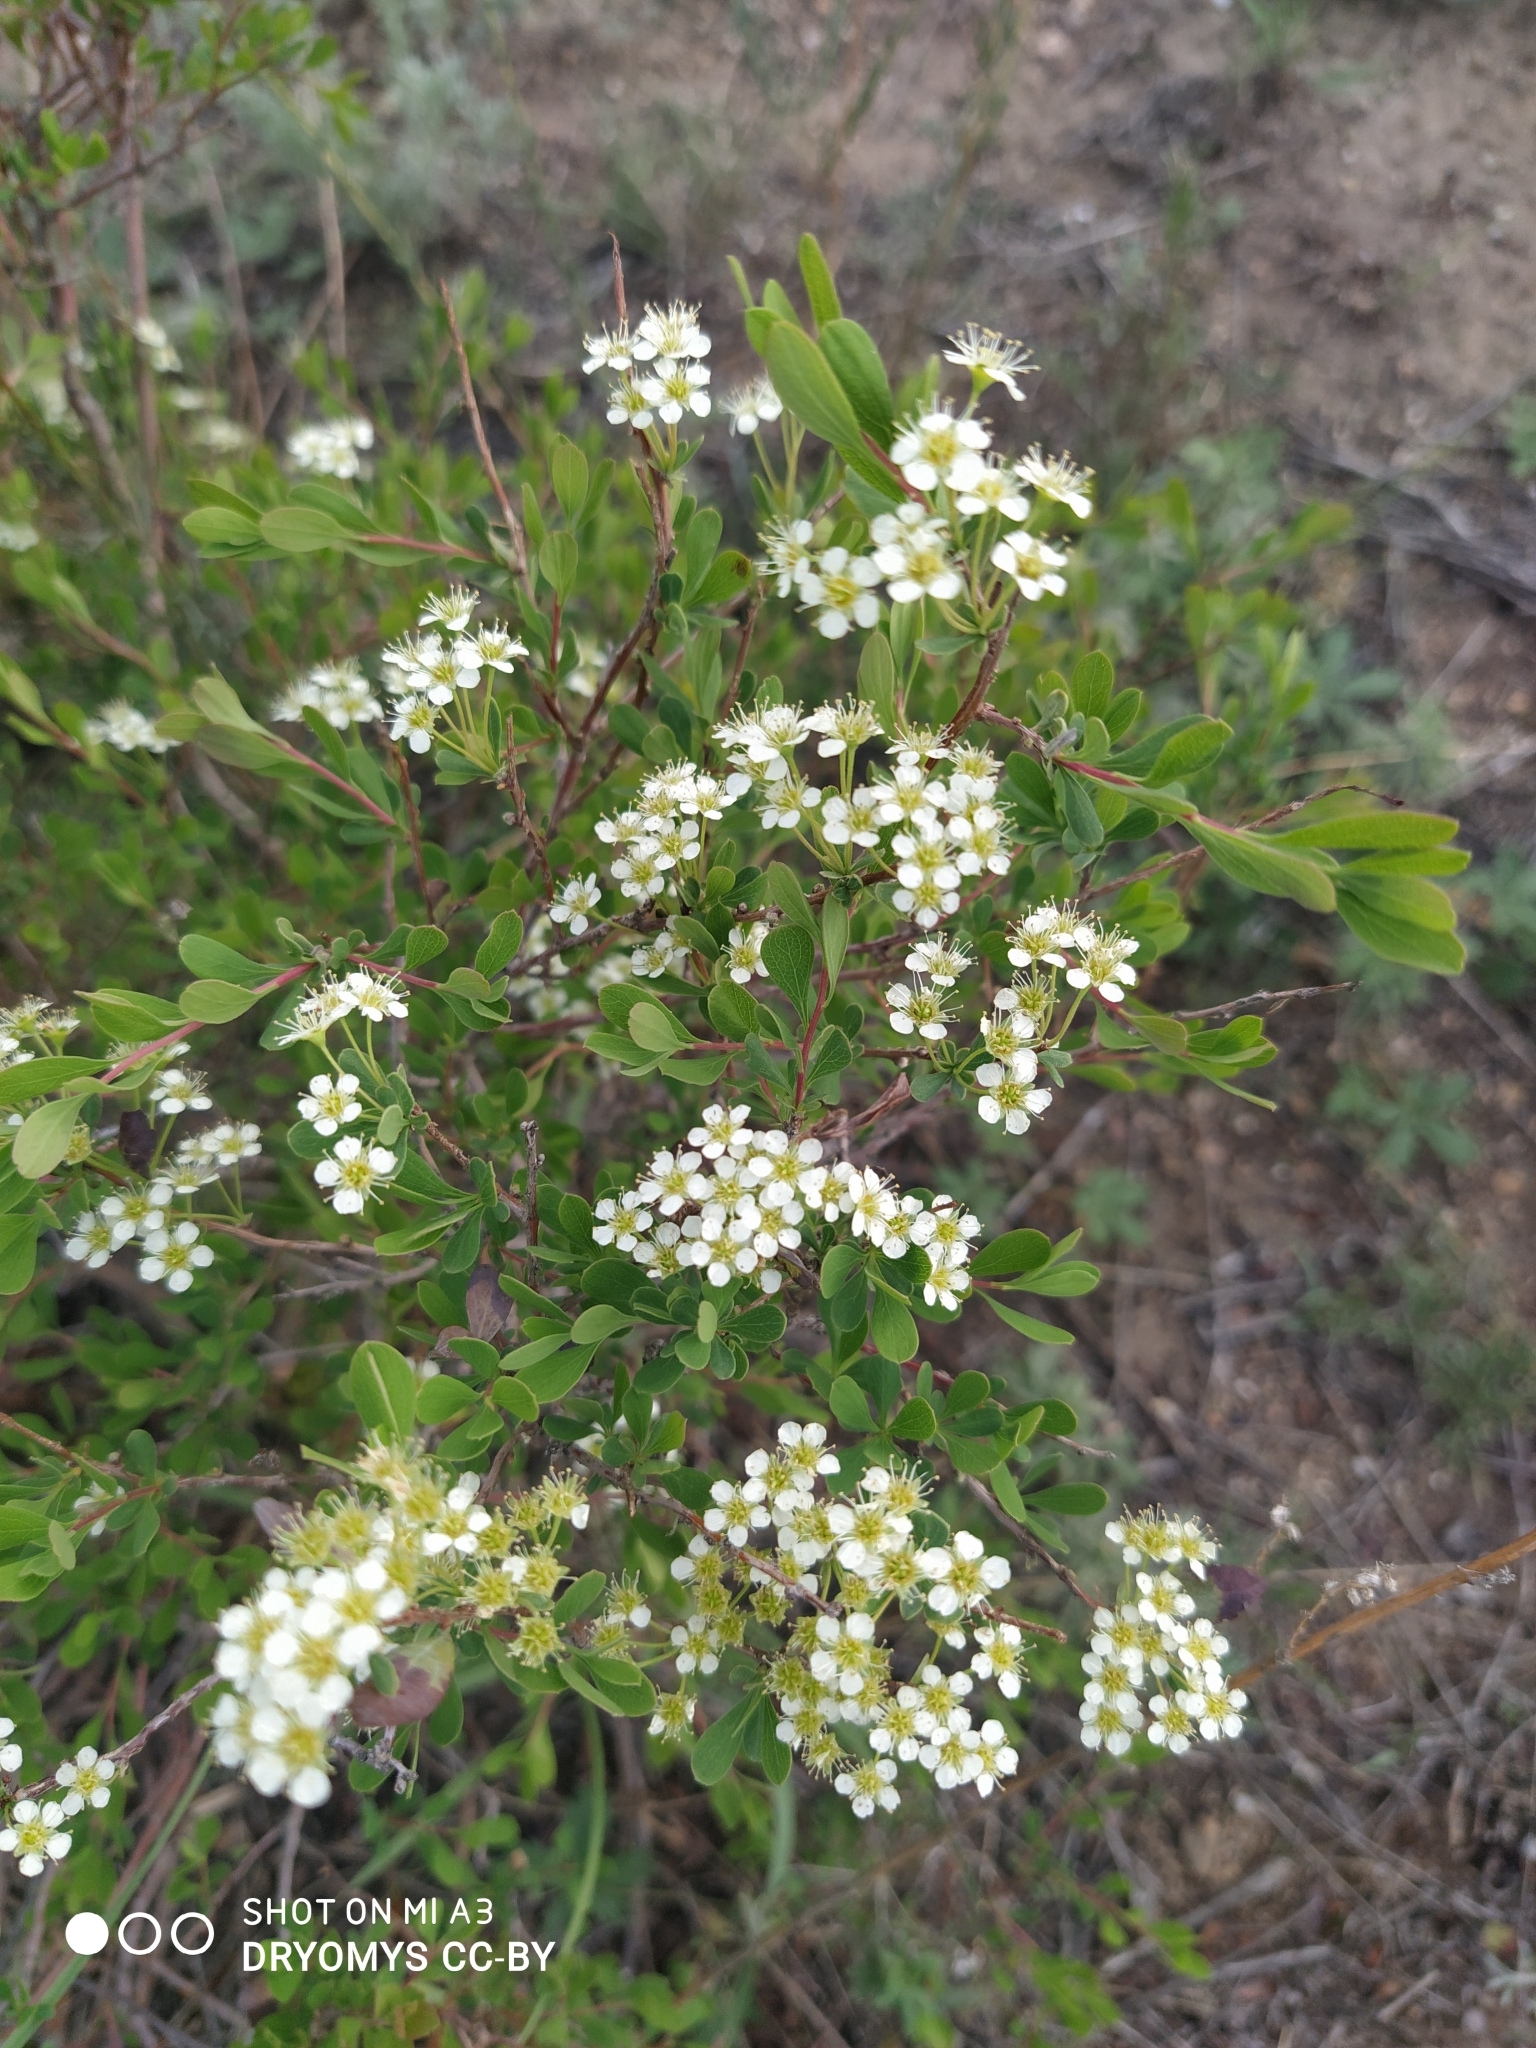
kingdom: Plantae
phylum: Tracheophyta
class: Magnoliopsida
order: Rosales
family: Rosaceae
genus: Spiraea
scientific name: Spiraea hypericifolia
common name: Iberian spirea
